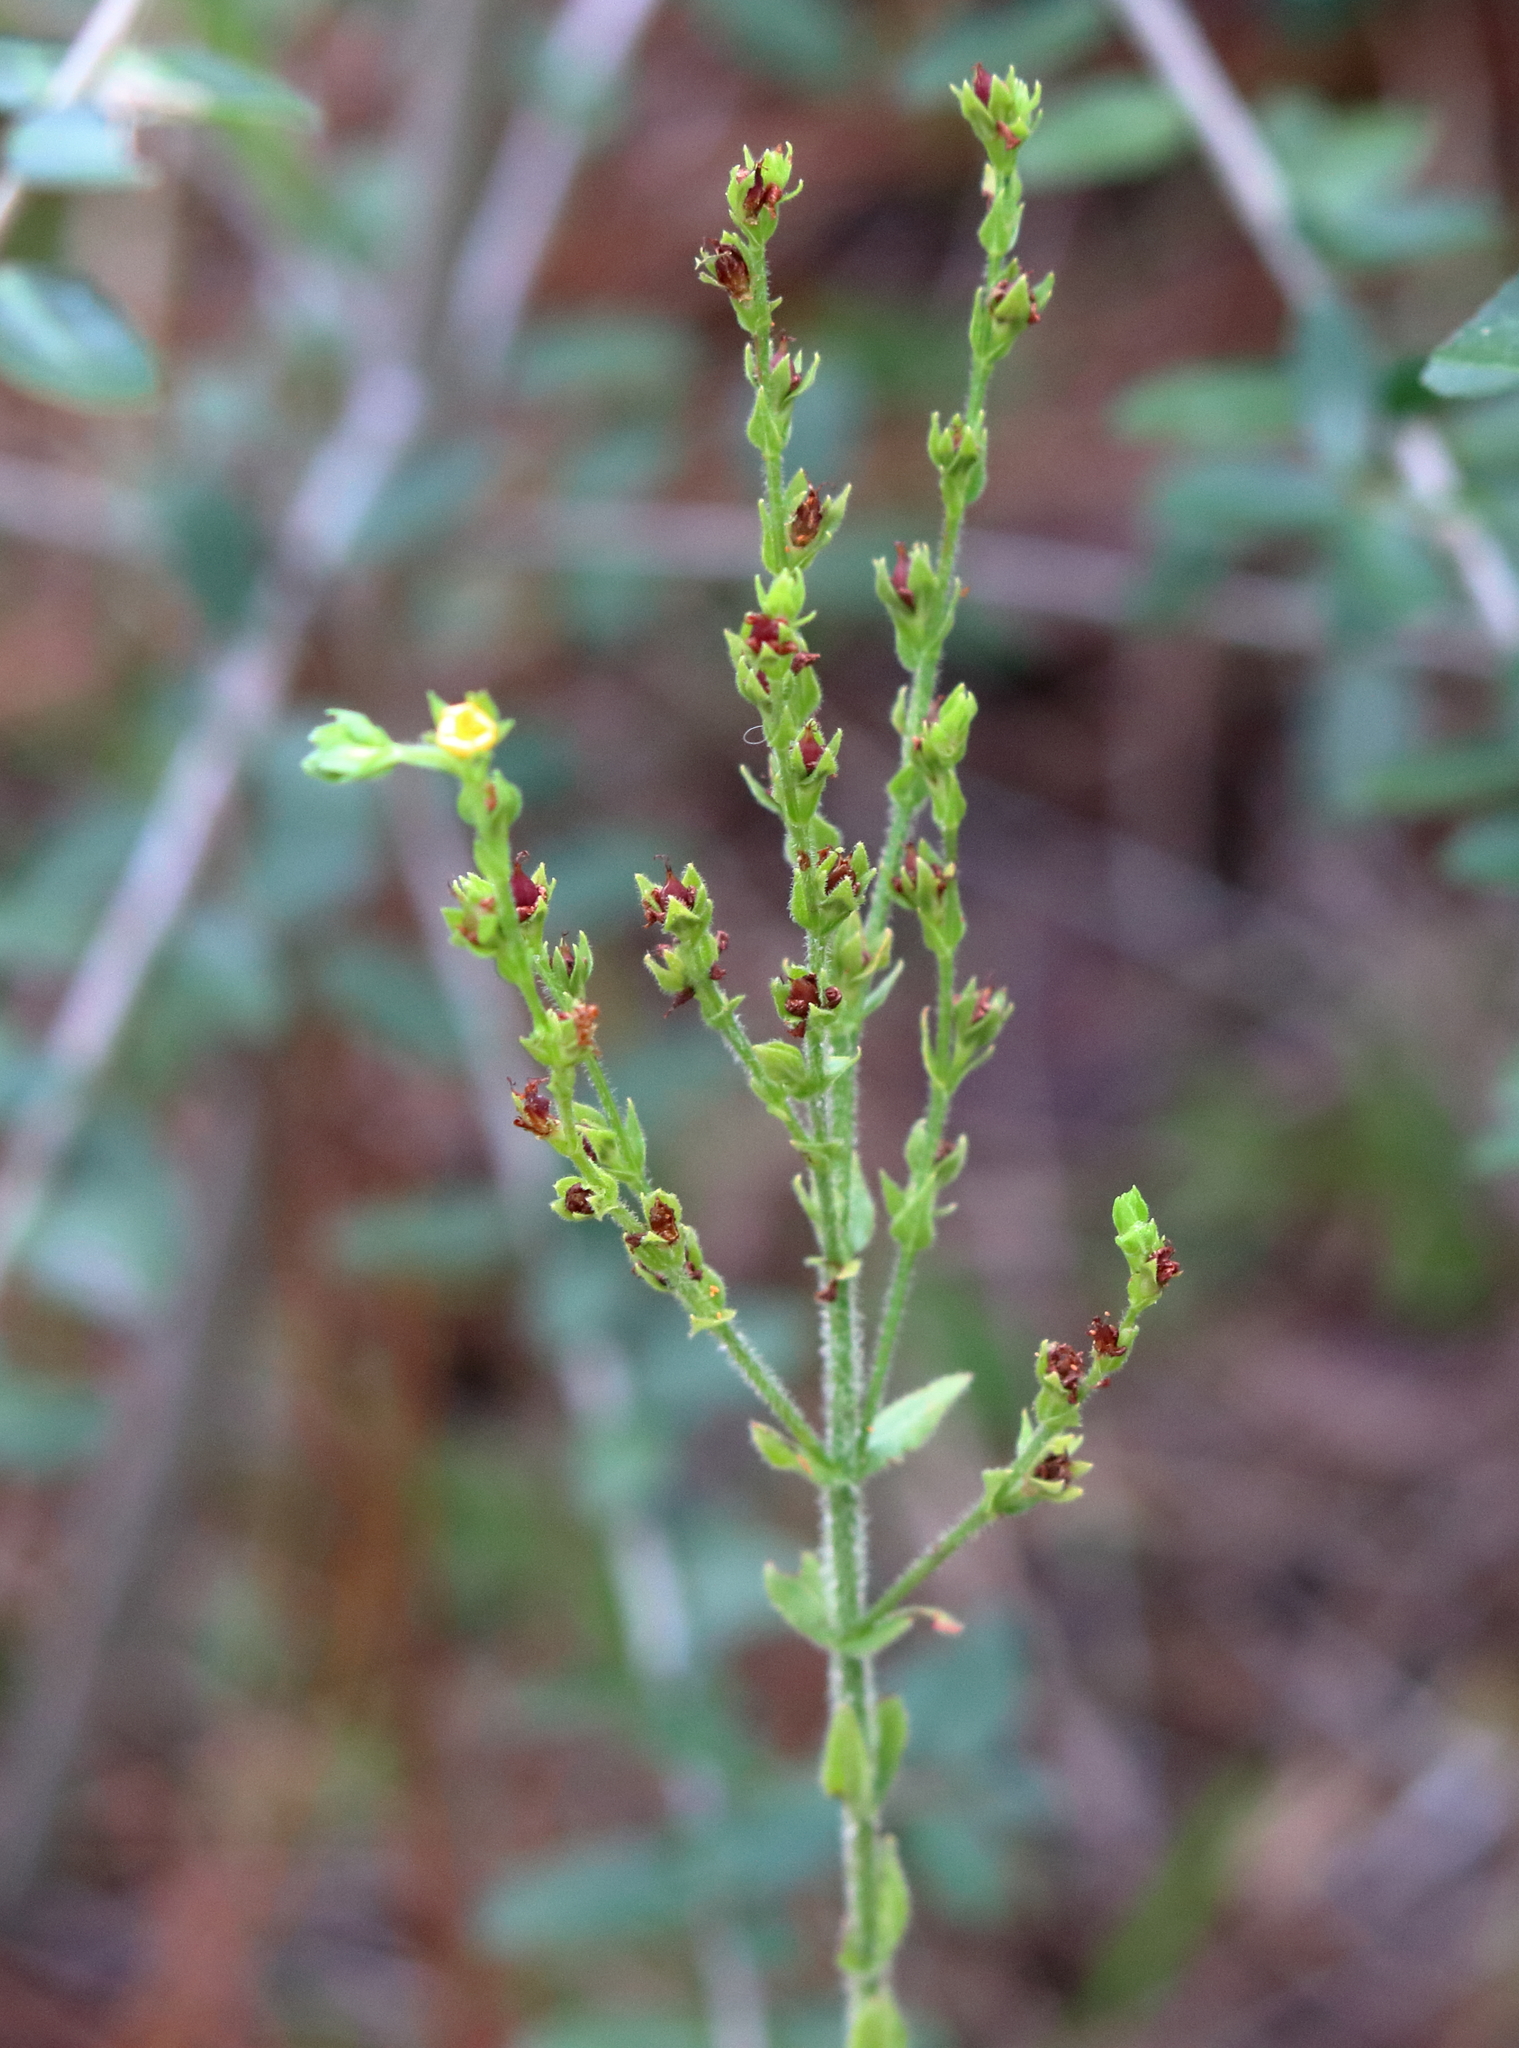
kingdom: Plantae
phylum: Tracheophyta
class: Magnoliopsida
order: Malpighiales
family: Hypericaceae
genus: Hypericum
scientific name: Hypericum setosum
